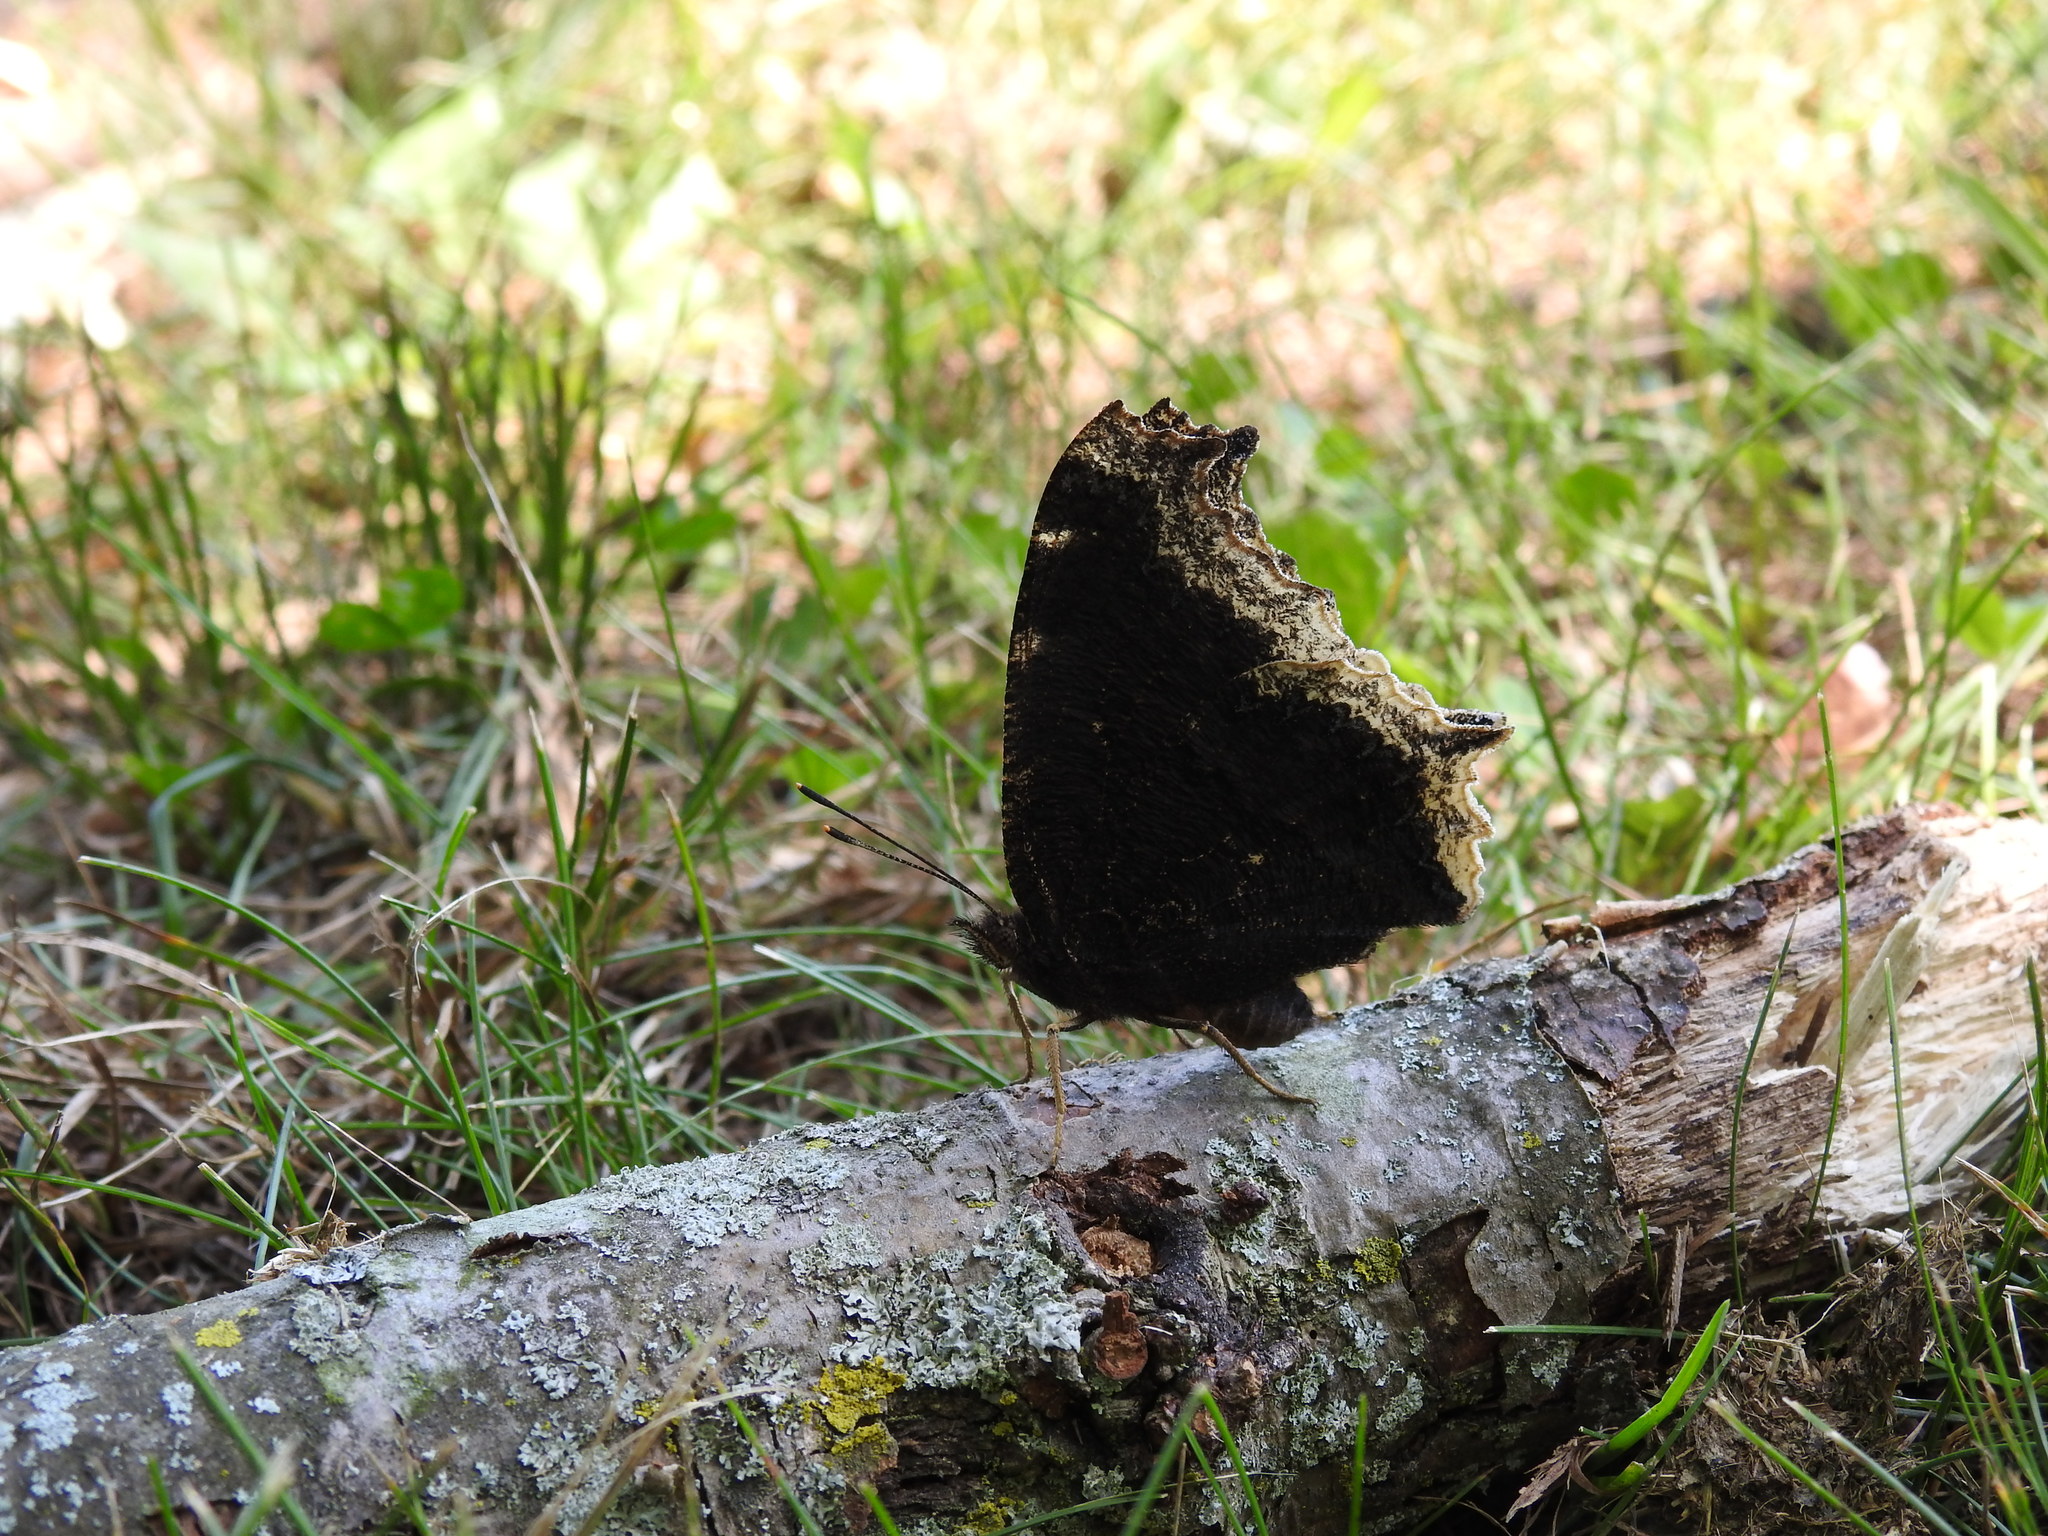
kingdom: Animalia
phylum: Arthropoda
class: Insecta
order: Lepidoptera
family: Nymphalidae
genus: Nymphalis
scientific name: Nymphalis antiopa
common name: Camberwell beauty
